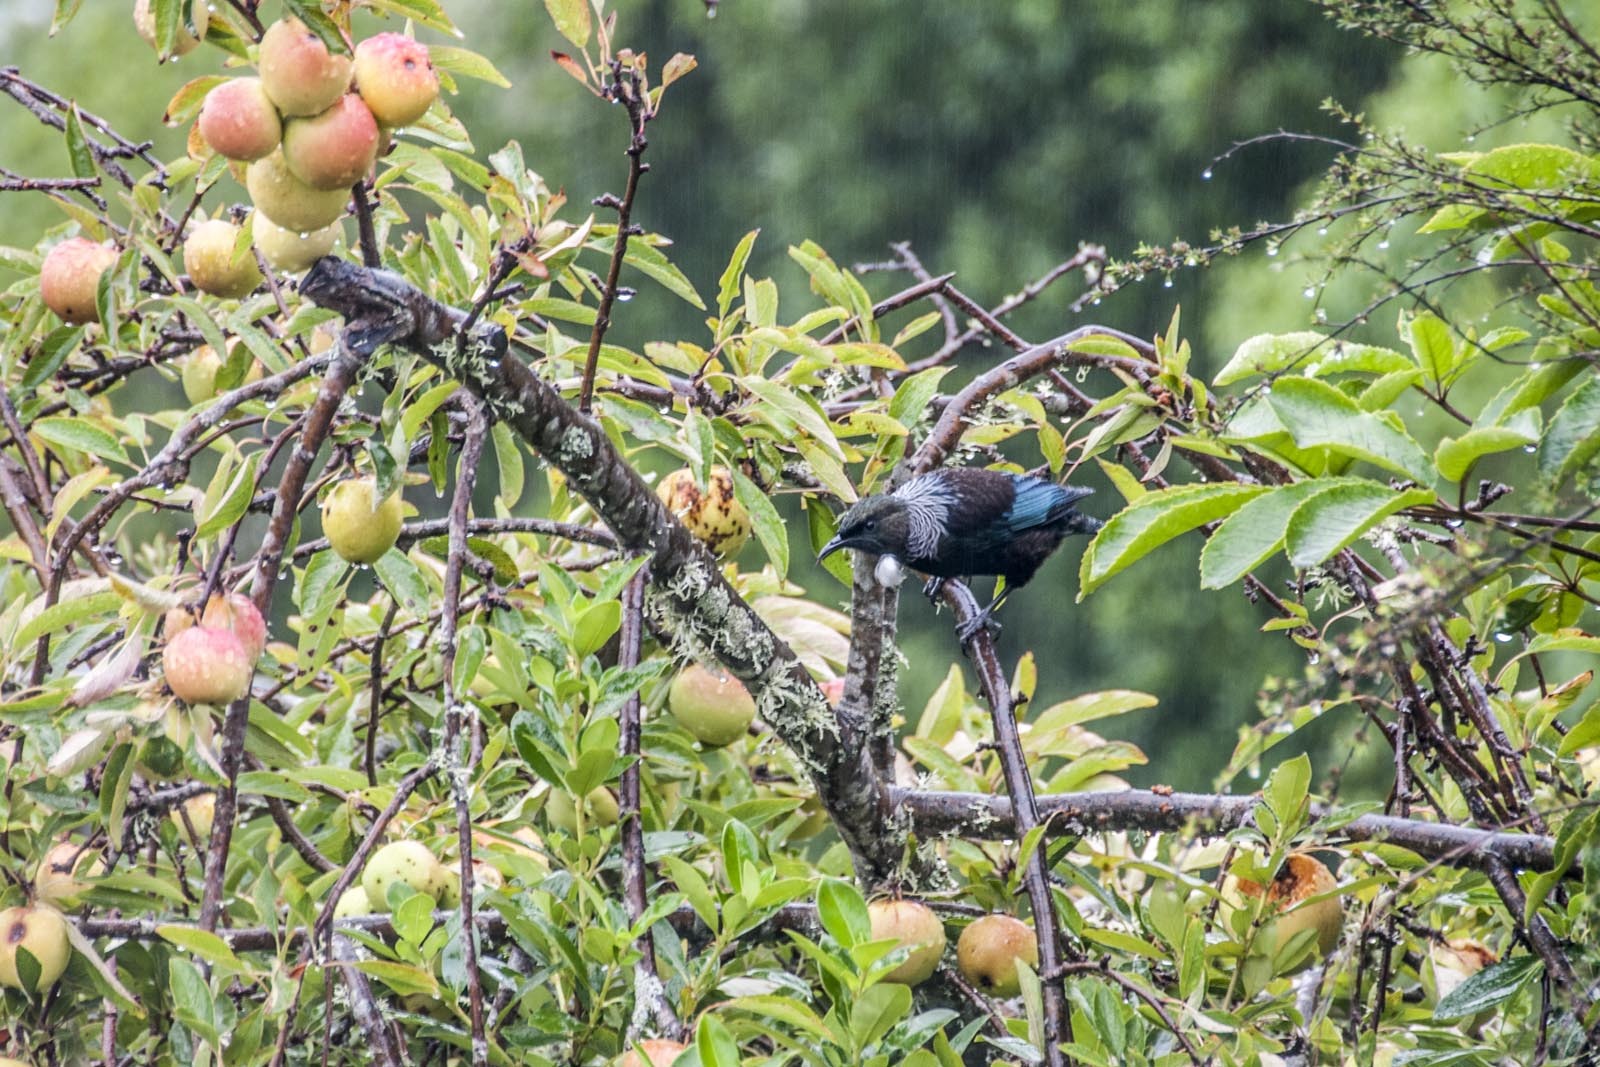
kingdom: Animalia
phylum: Chordata
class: Aves
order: Passeriformes
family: Meliphagidae
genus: Prosthemadera
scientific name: Prosthemadera novaeseelandiae
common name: Tui
